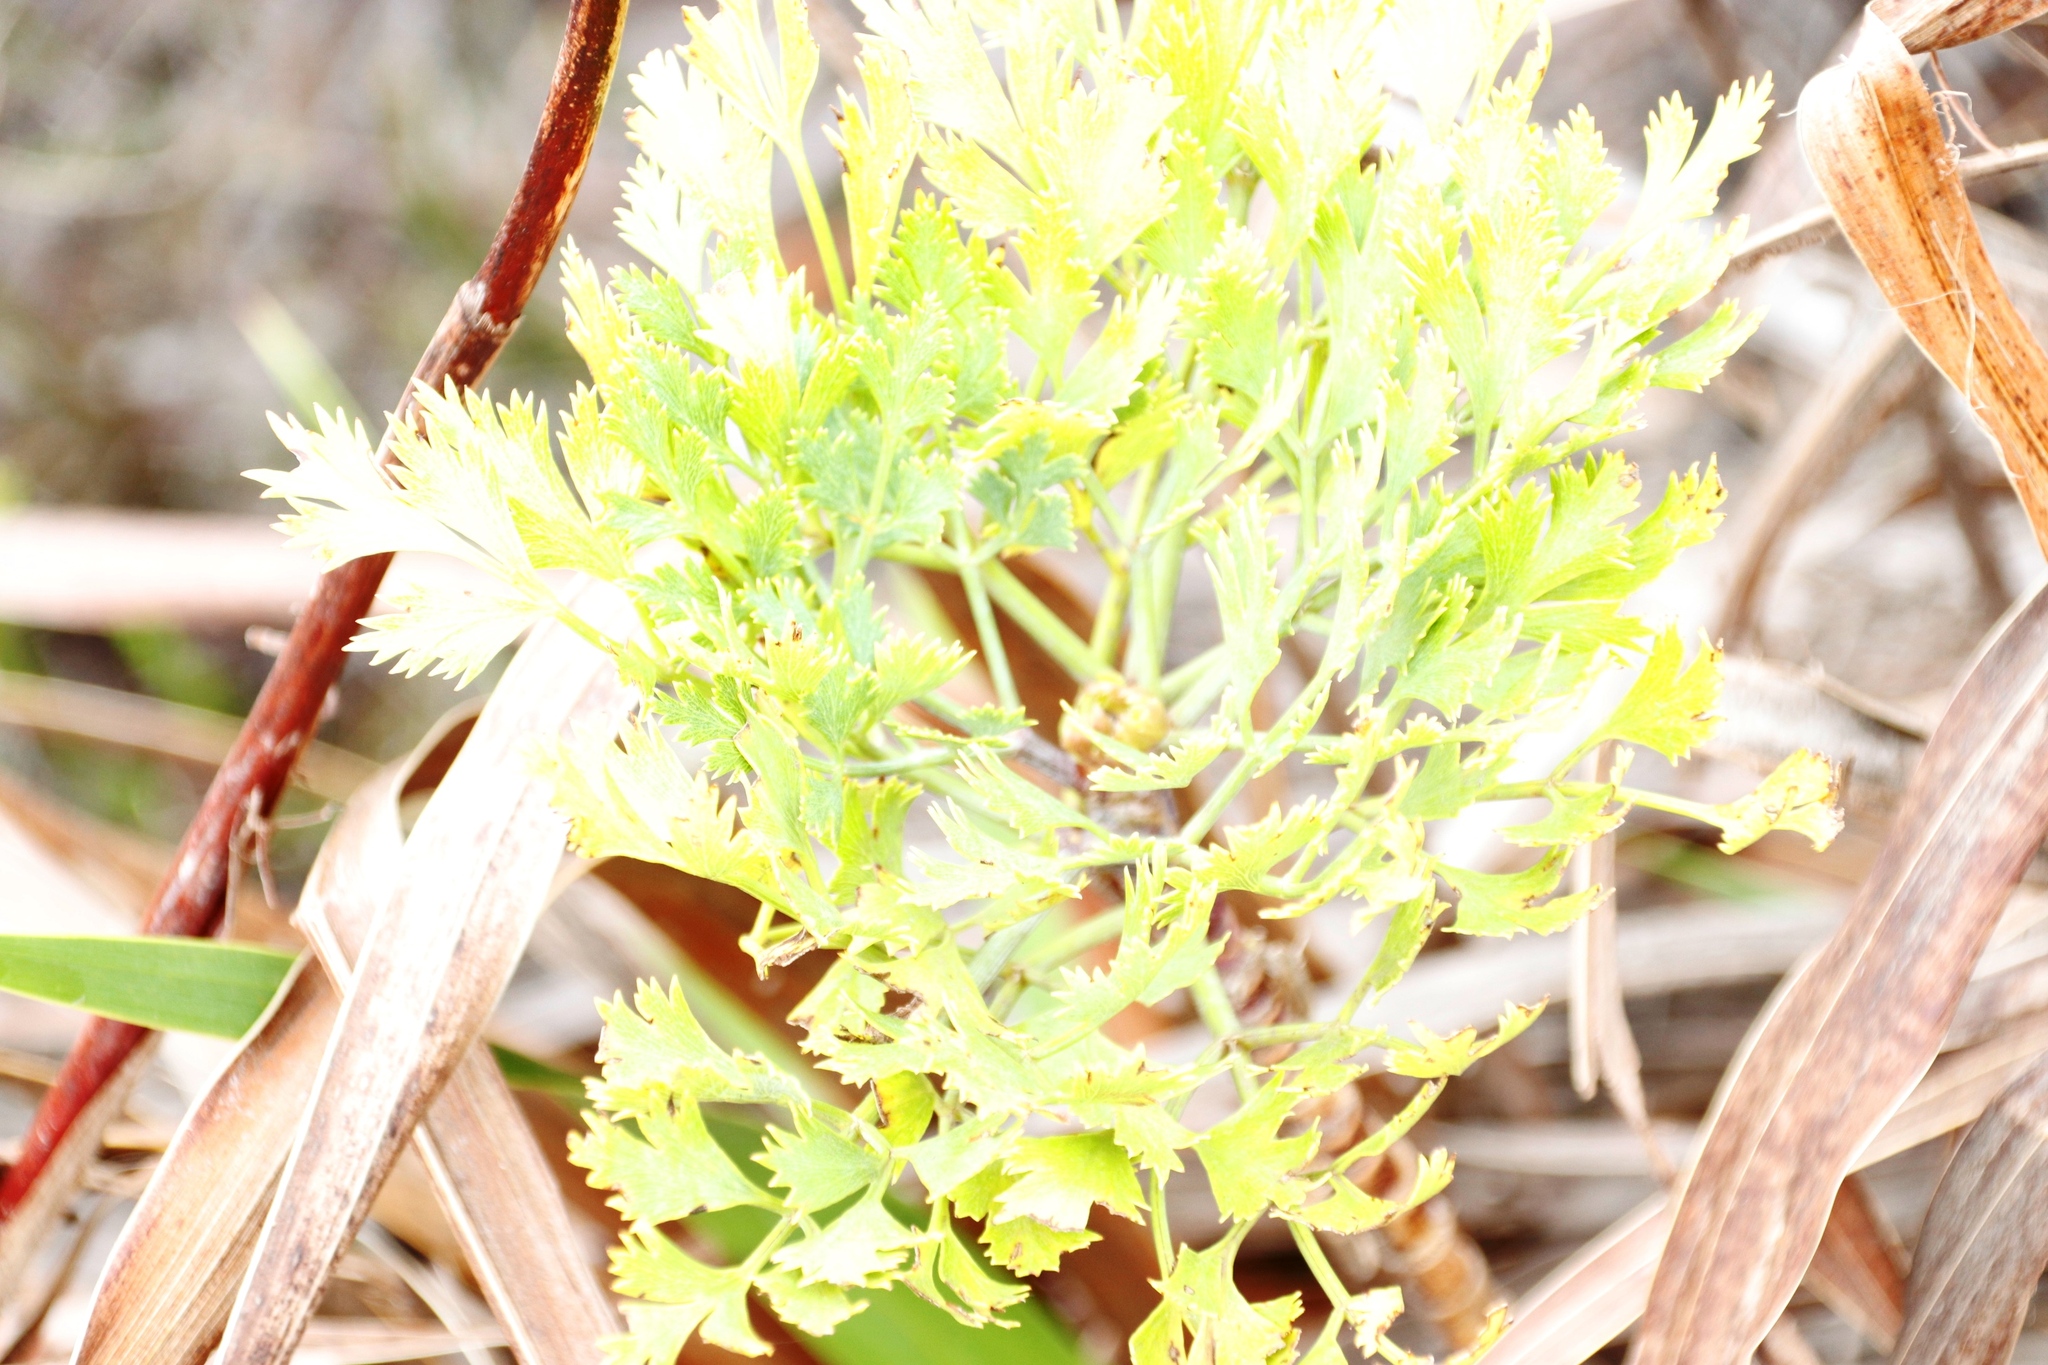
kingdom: Plantae
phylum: Tracheophyta
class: Magnoliopsida
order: Apiales
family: Apiaceae
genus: Notobubon
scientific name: Notobubon galbanum
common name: Blisterbush
